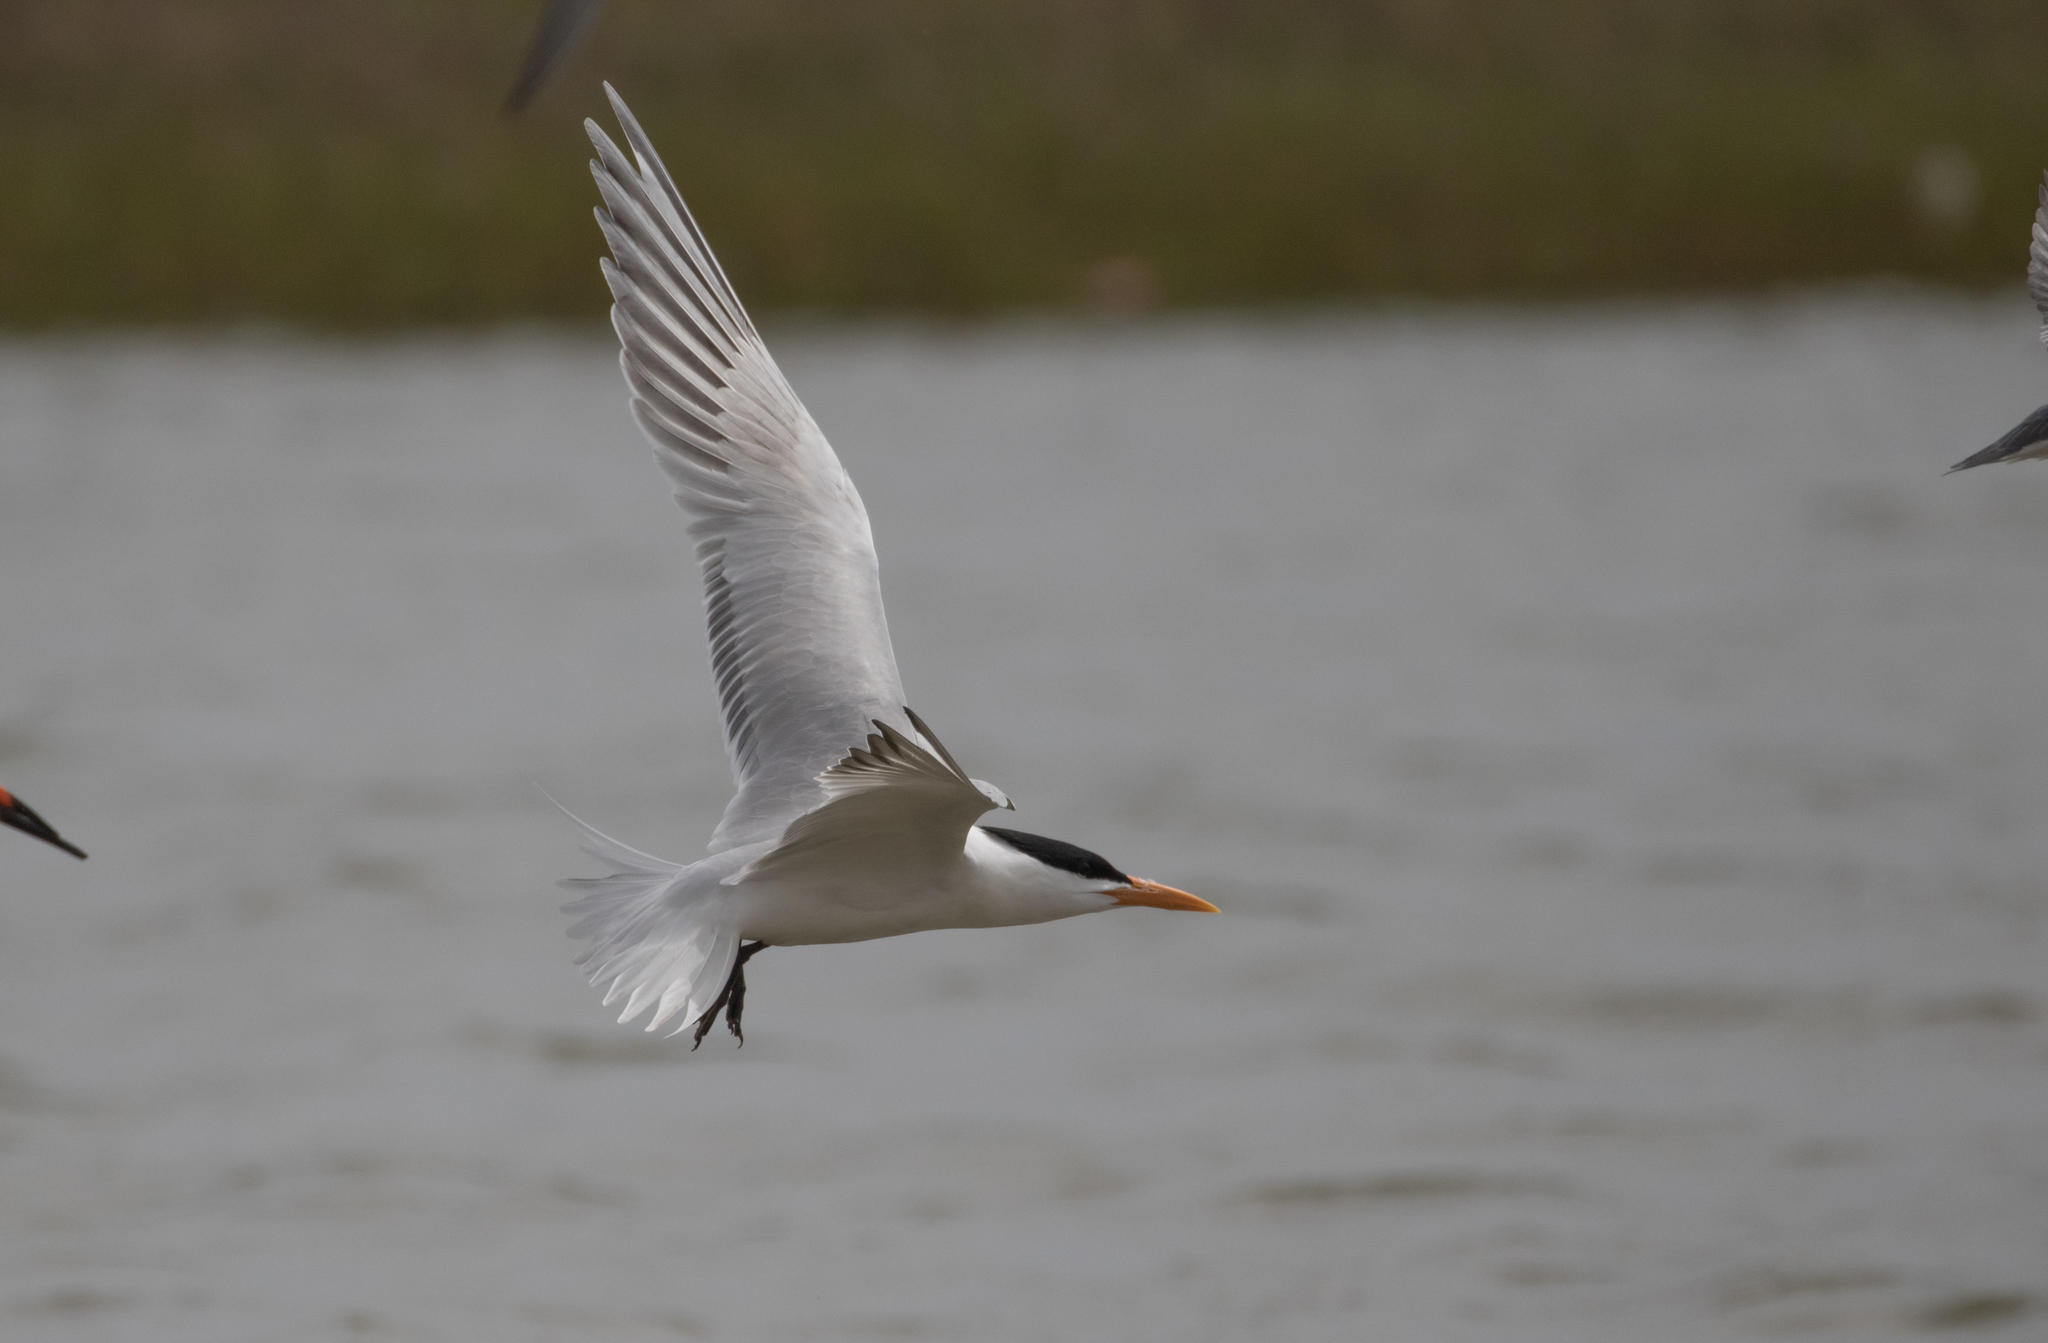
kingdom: Animalia
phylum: Chordata
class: Aves
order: Charadriiformes
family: Laridae
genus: Thalasseus
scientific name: Thalasseus maximus
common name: Royal tern
